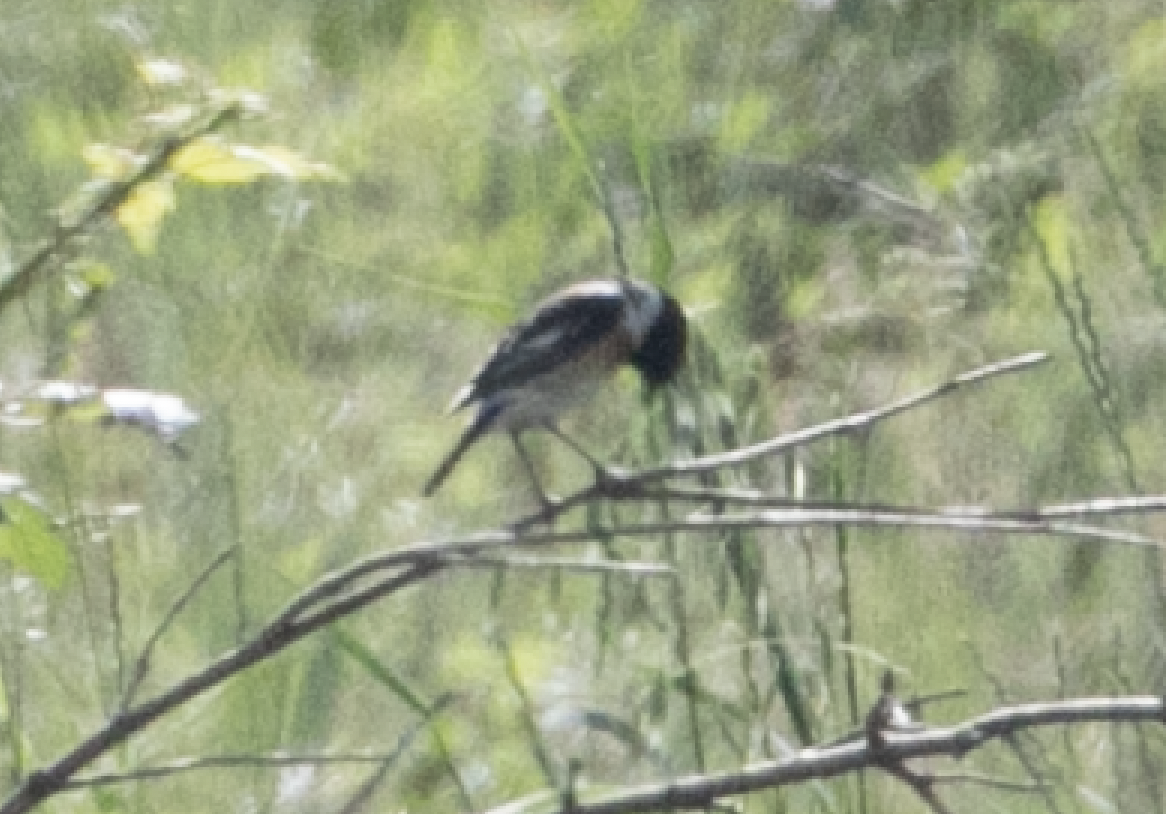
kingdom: Animalia
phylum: Chordata
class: Aves
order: Passeriformes
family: Muscicapidae
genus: Saxicola
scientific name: Saxicola rubicola
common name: European stonechat
